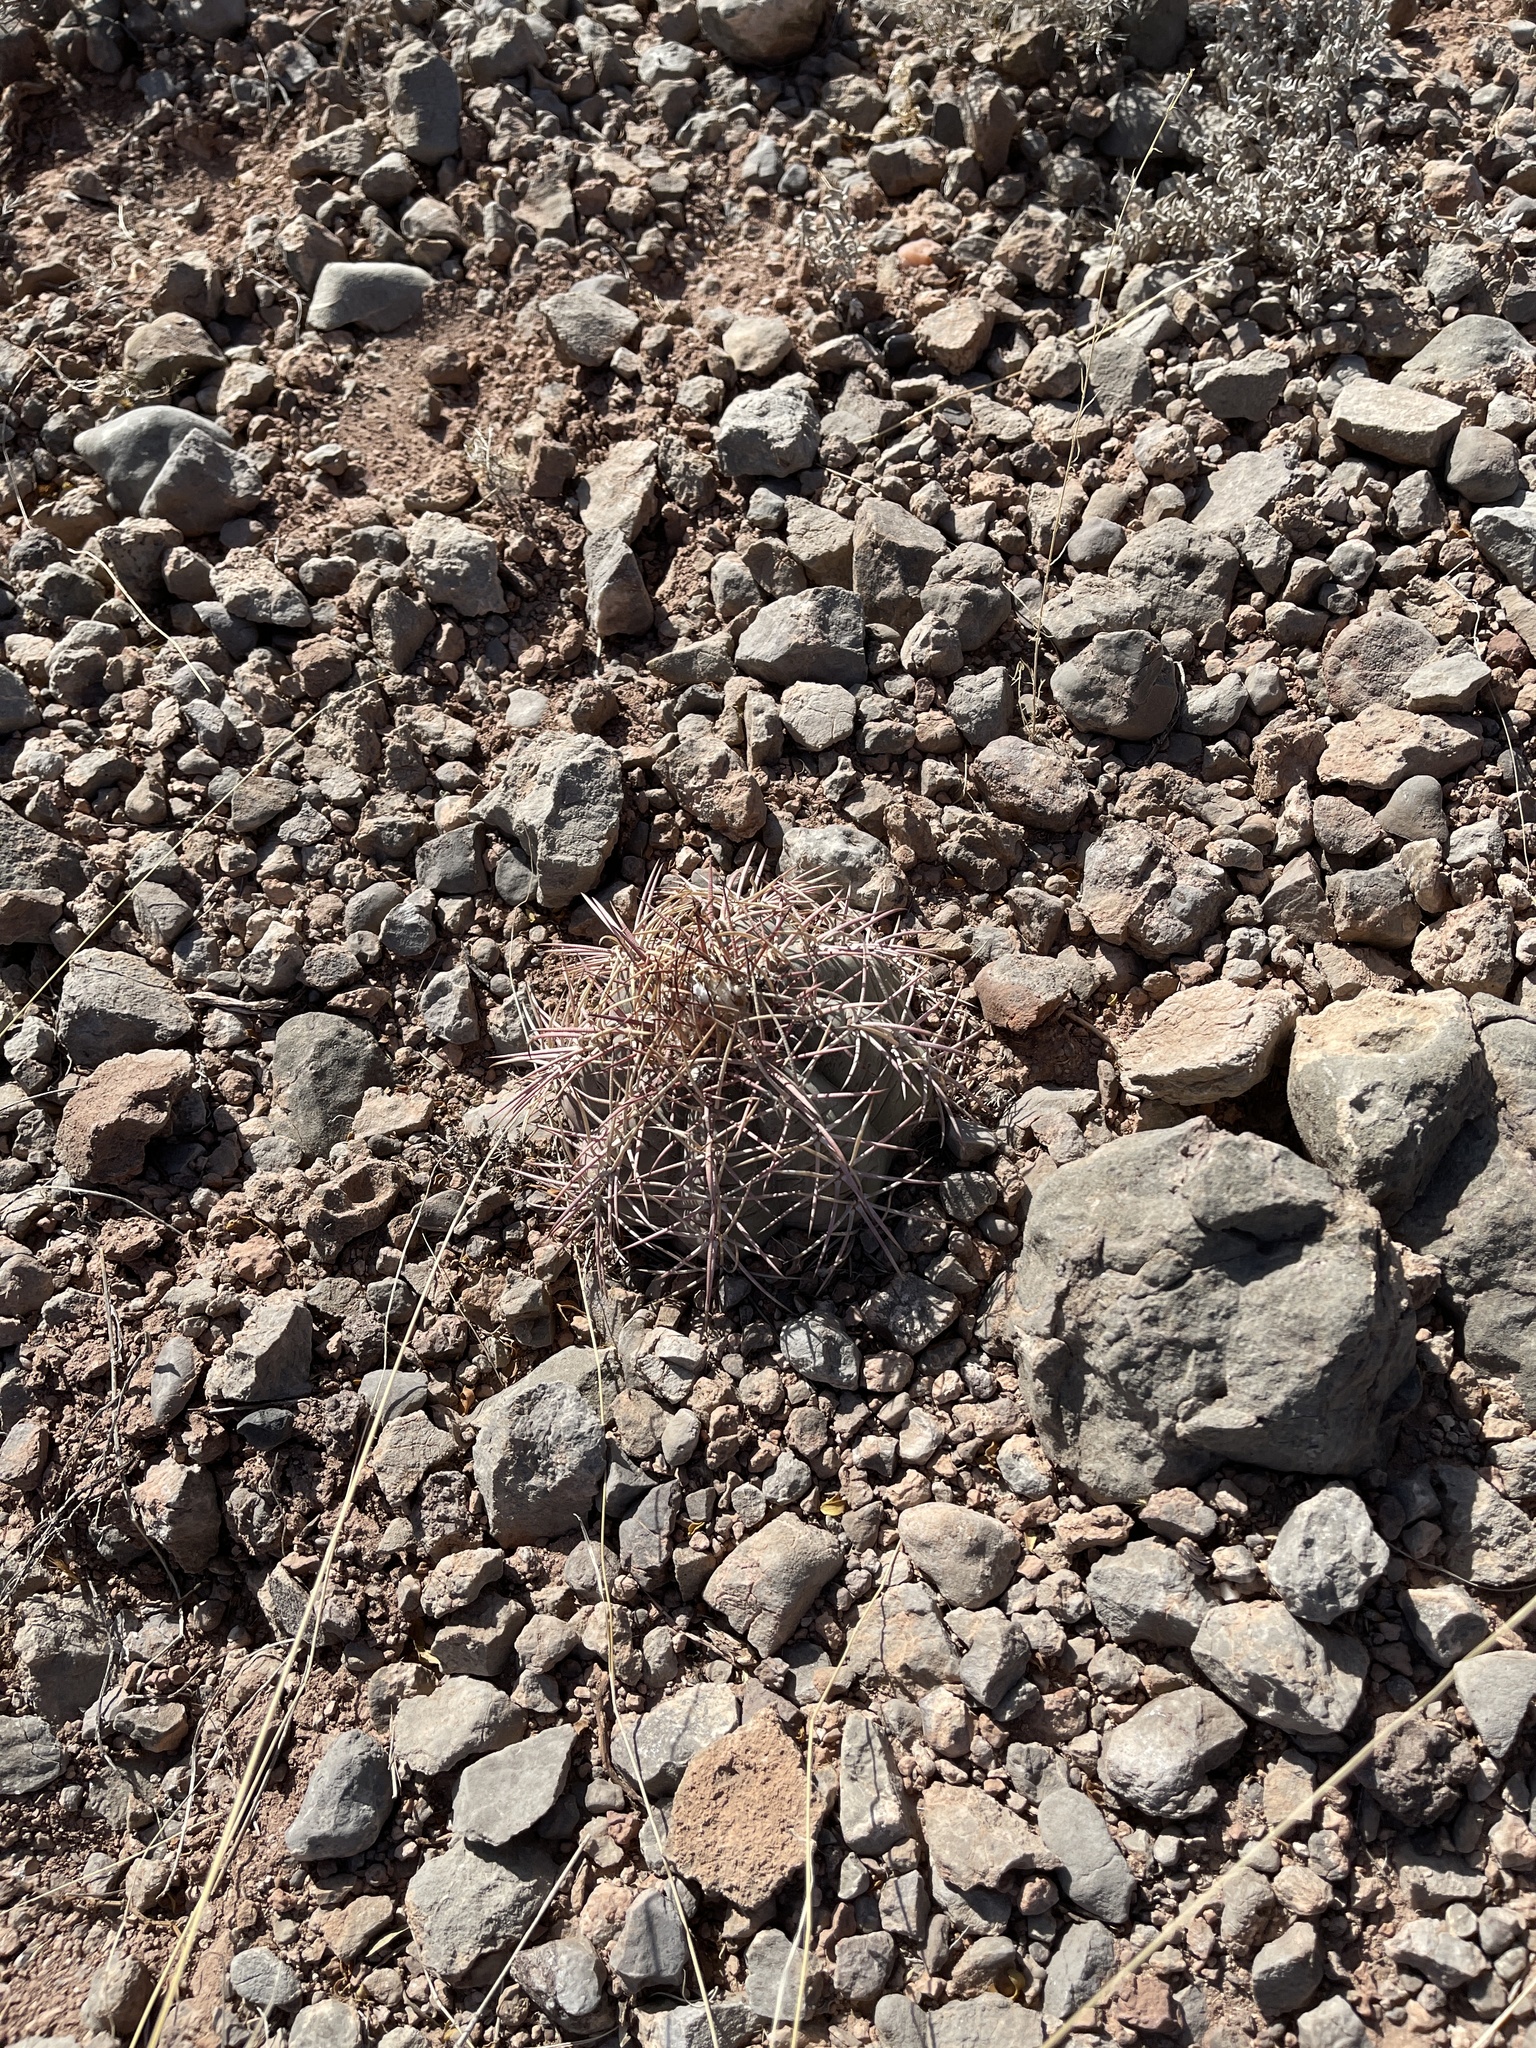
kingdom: Plantae
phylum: Tracheophyta
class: Magnoliopsida
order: Caryophyllales
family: Cactaceae
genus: Echinocactus
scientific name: Echinocactus horizonthalonius
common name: Devilshead
